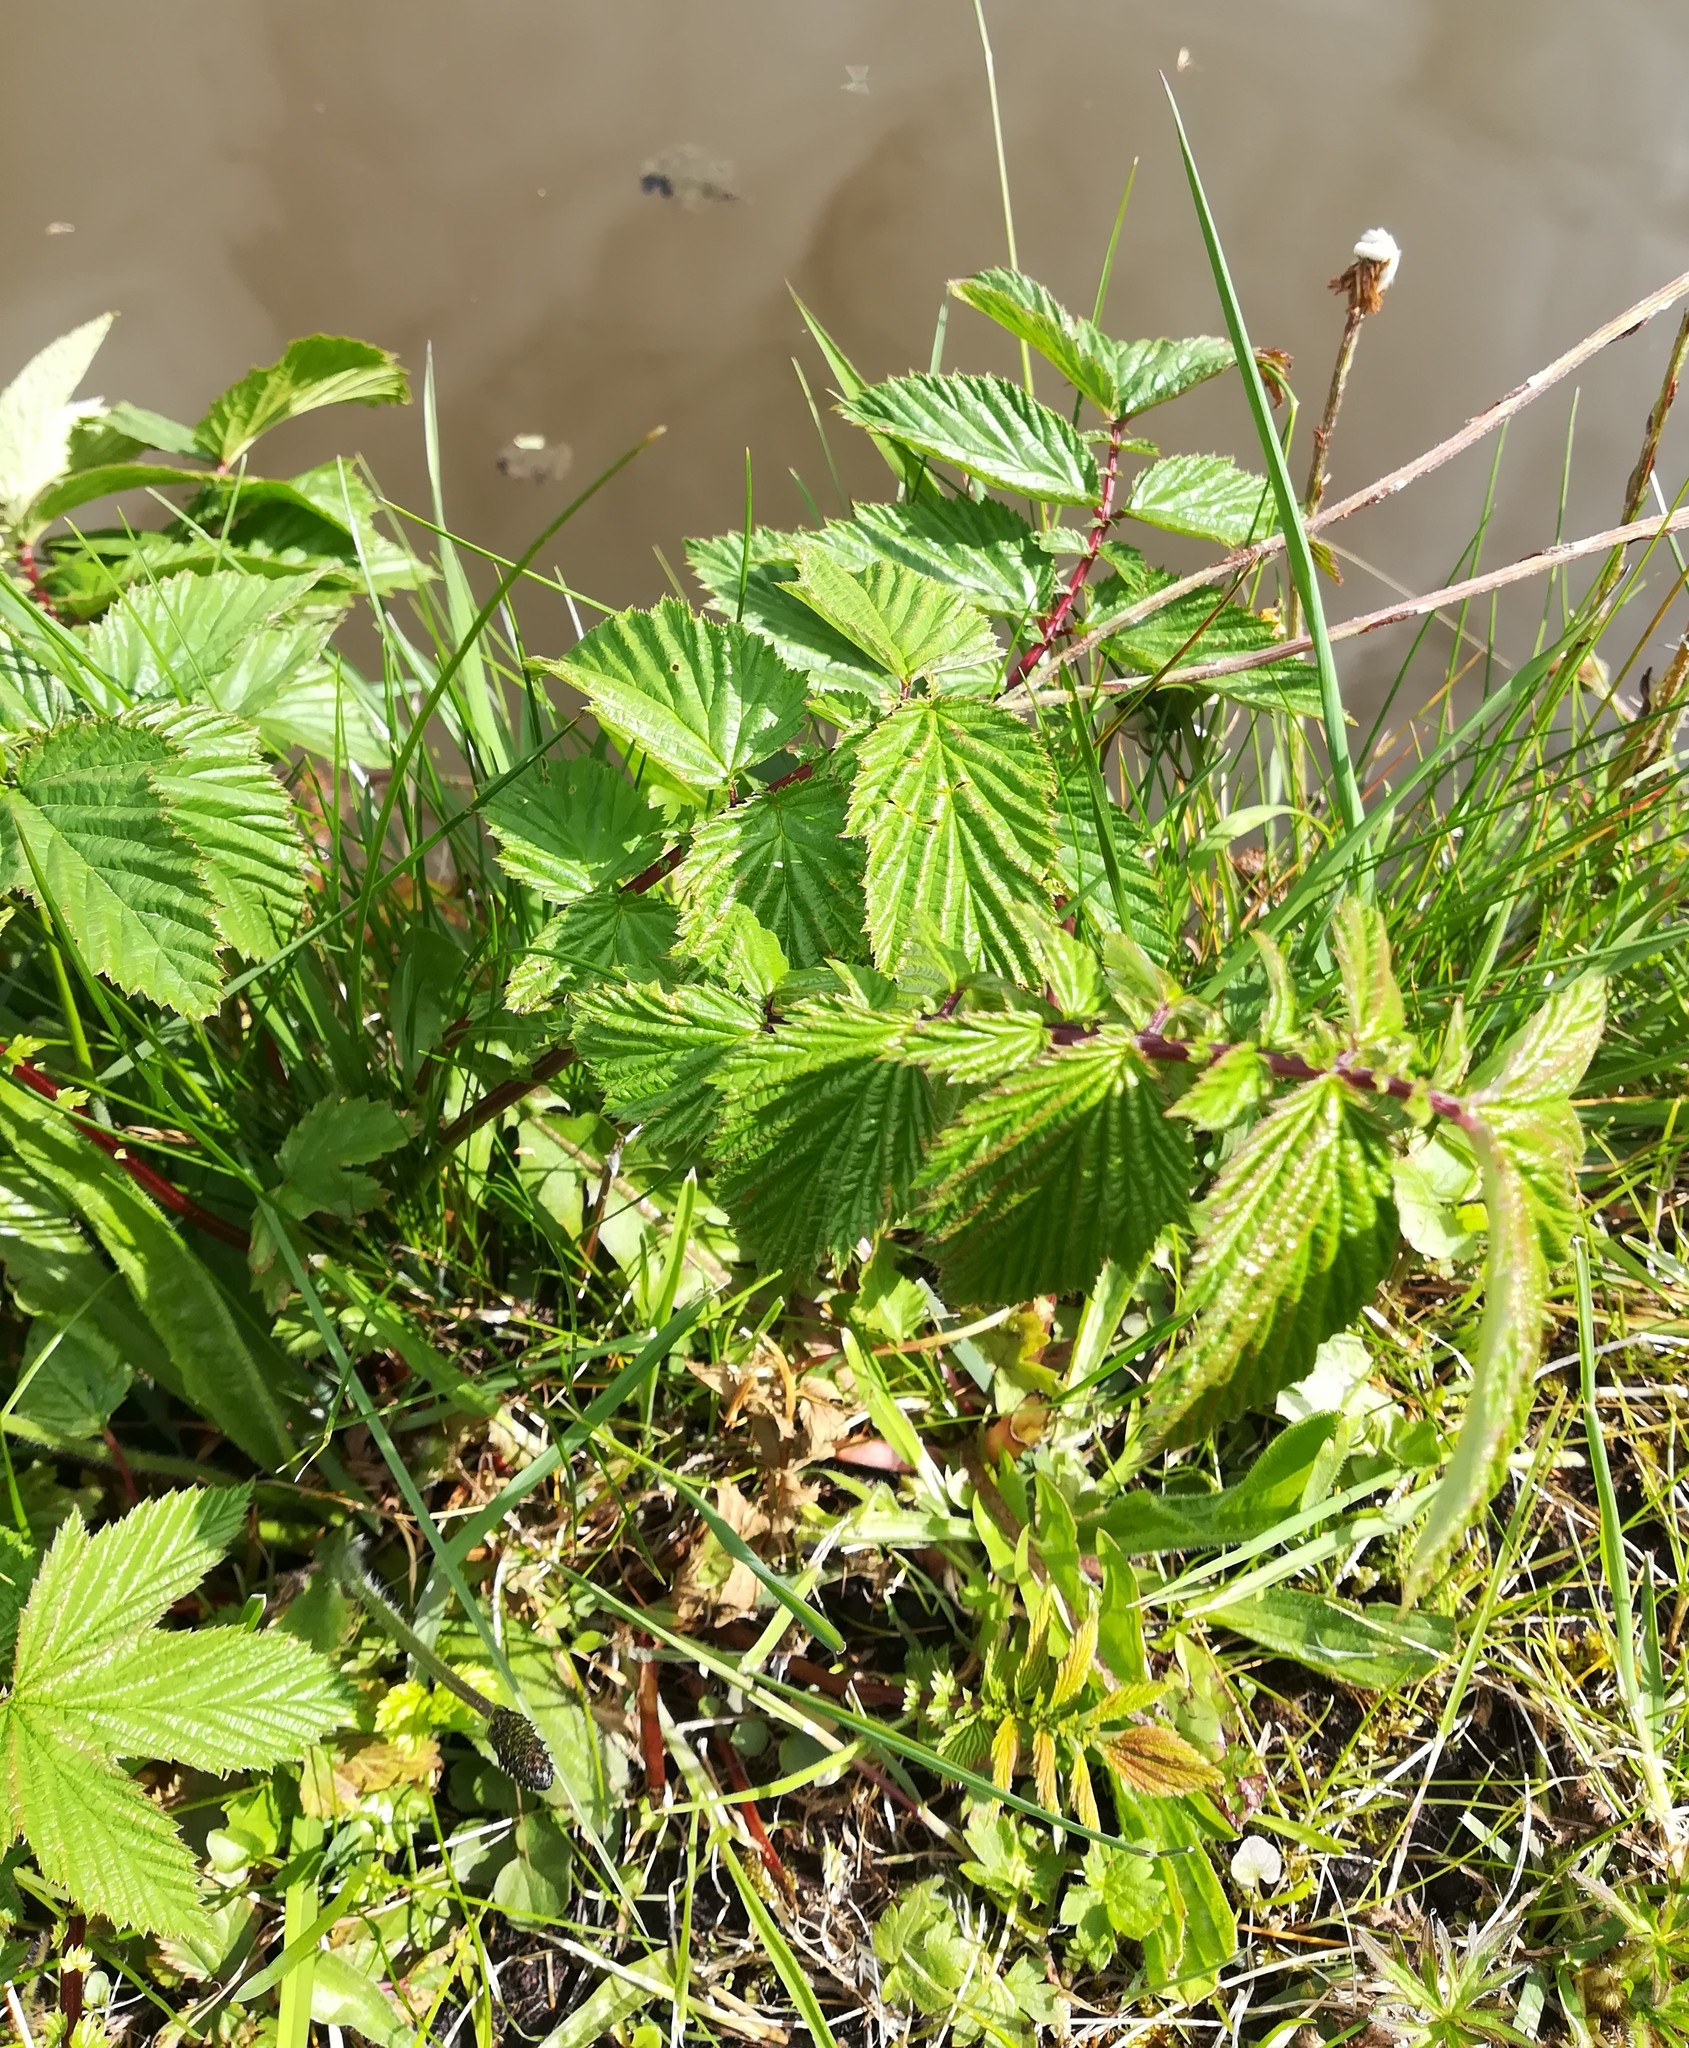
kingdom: Plantae
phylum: Tracheophyta
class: Magnoliopsida
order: Rosales
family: Rosaceae
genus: Filipendula
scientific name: Filipendula ulmaria
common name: Meadowsweet
